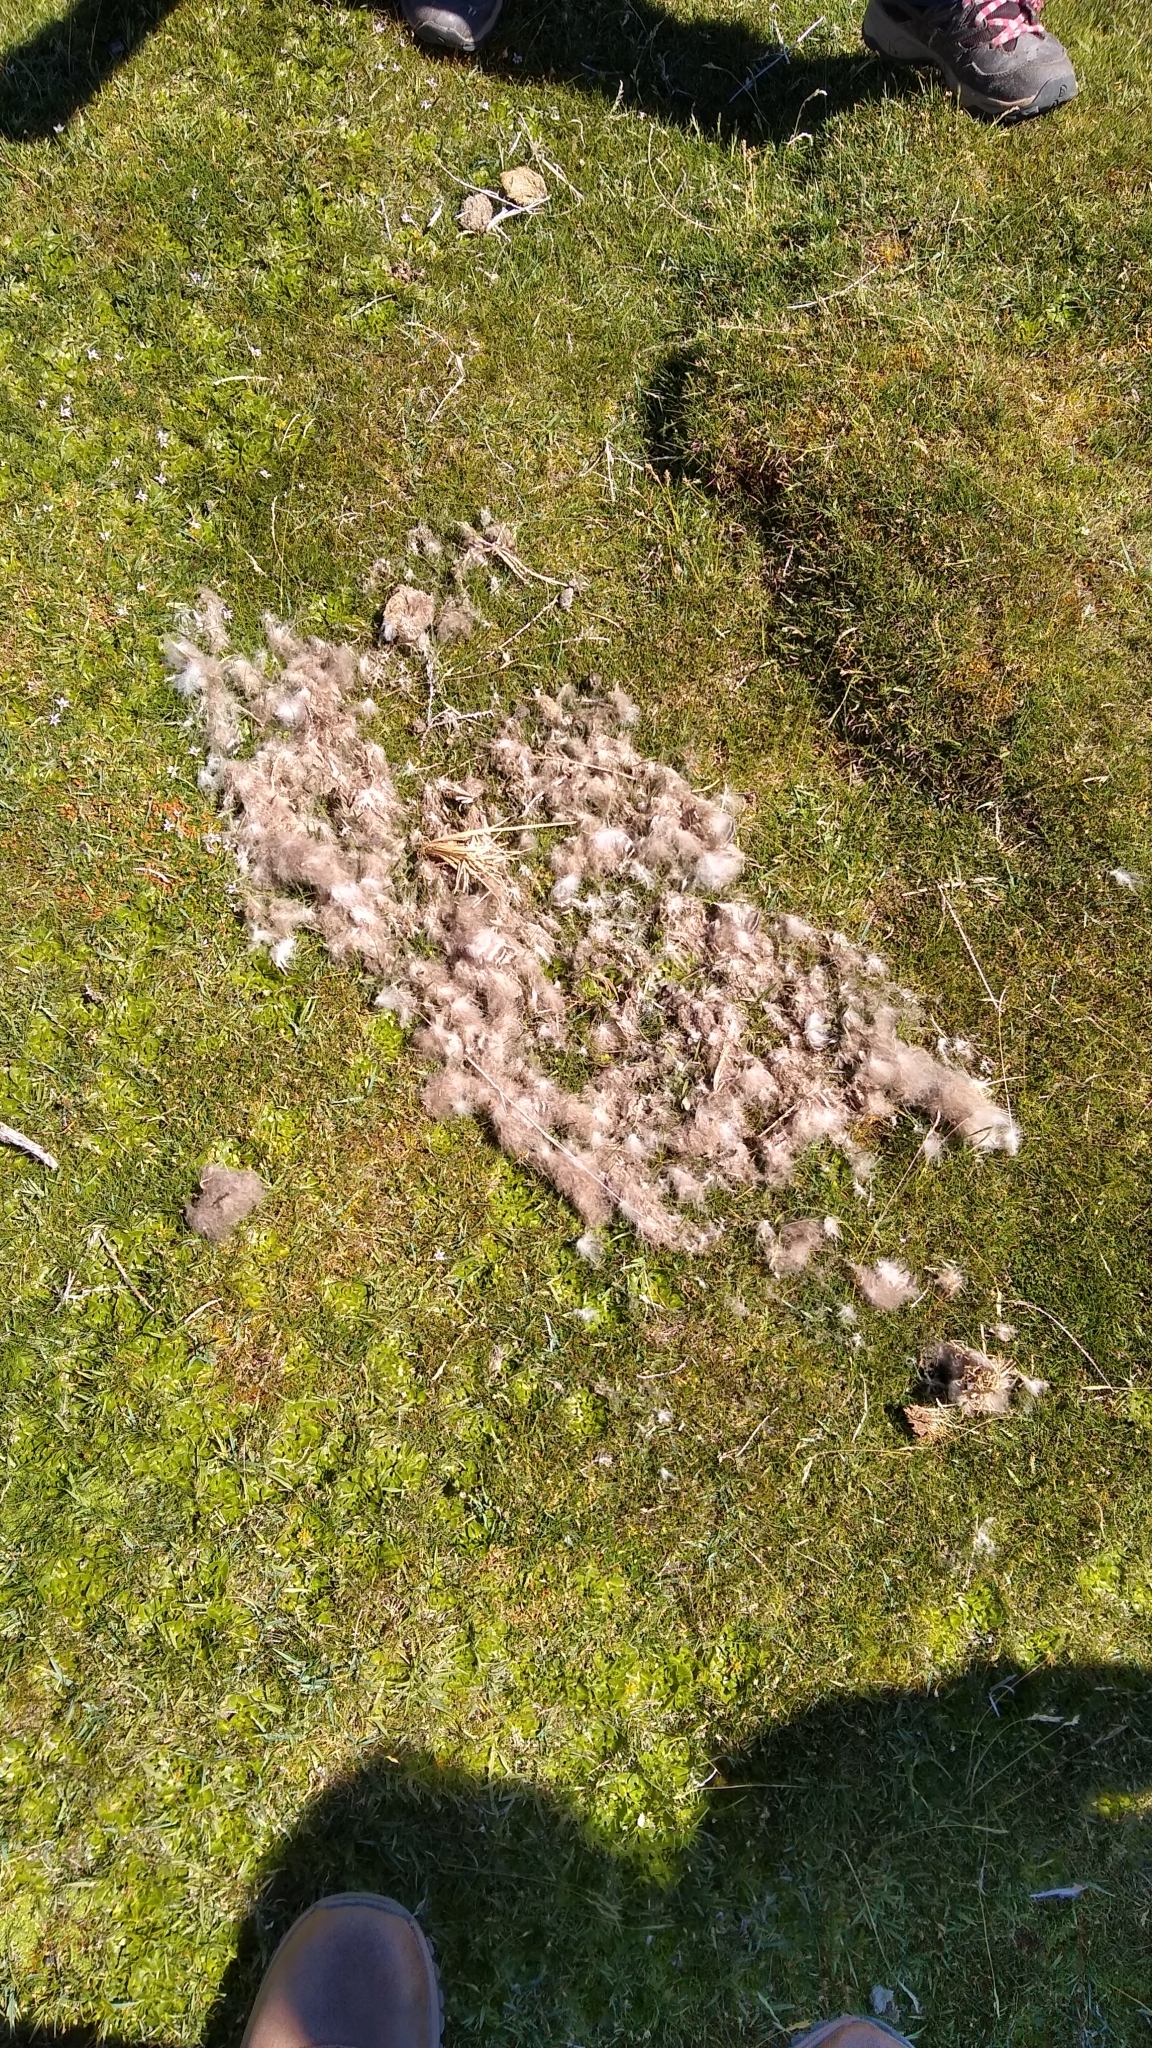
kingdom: Animalia
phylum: Chordata
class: Aves
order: Anseriformes
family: Anatidae
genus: Chloephaga
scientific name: Chloephaga picta
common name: Upland goose
